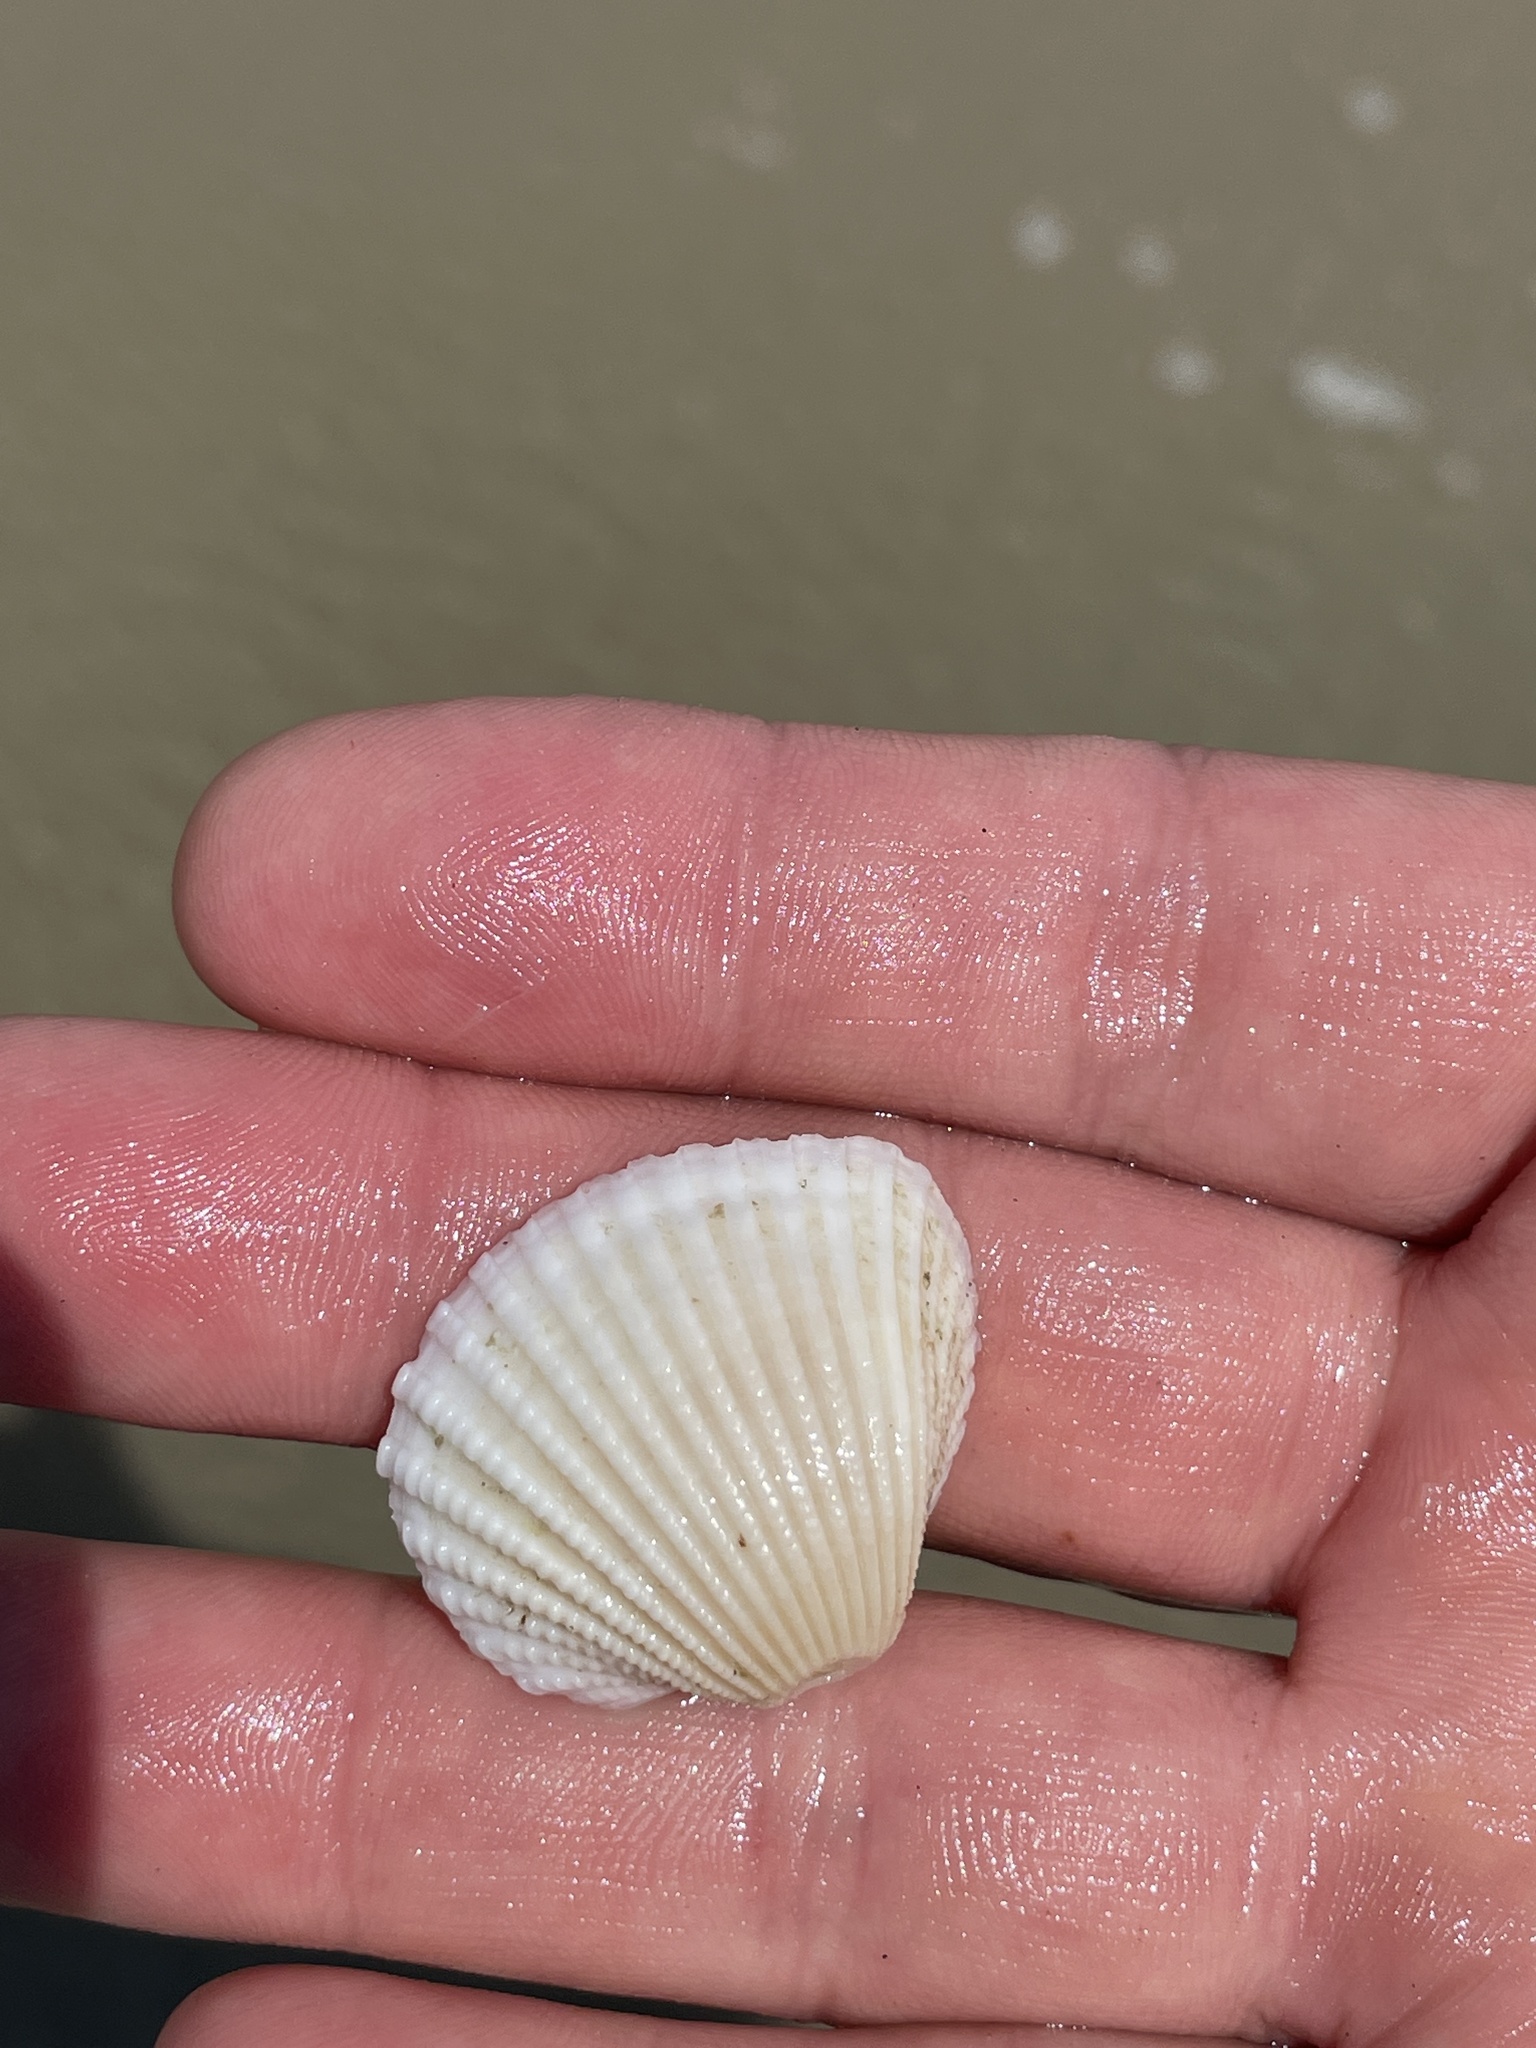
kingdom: Animalia
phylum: Mollusca
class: Bivalvia
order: Arcida
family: Arcidae
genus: Anadara
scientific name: Anadara brasiliana
